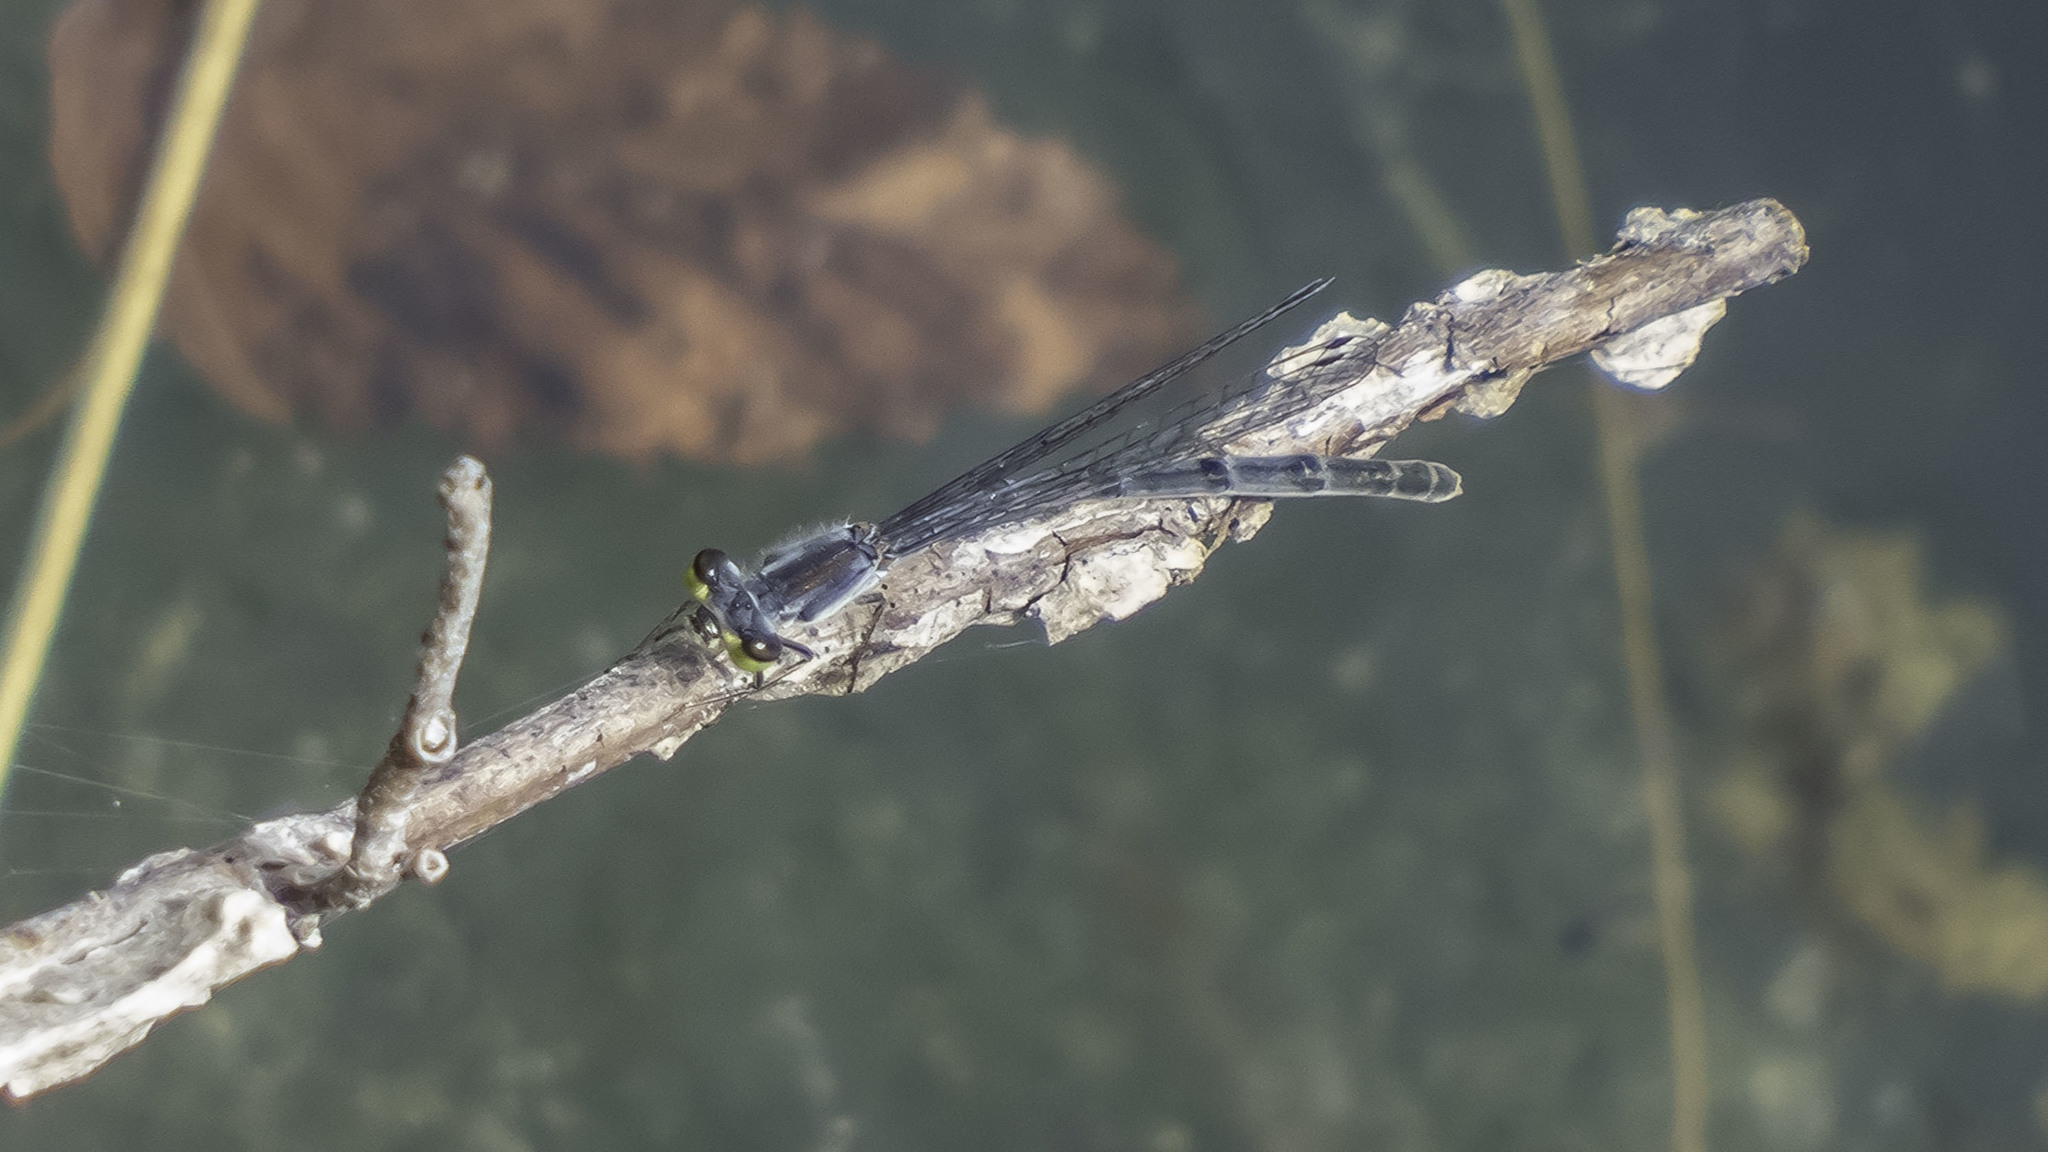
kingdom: Animalia
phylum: Arthropoda
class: Insecta
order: Odonata
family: Coenagrionidae
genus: Ischnura
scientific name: Ischnura posita
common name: Fragile forktail
